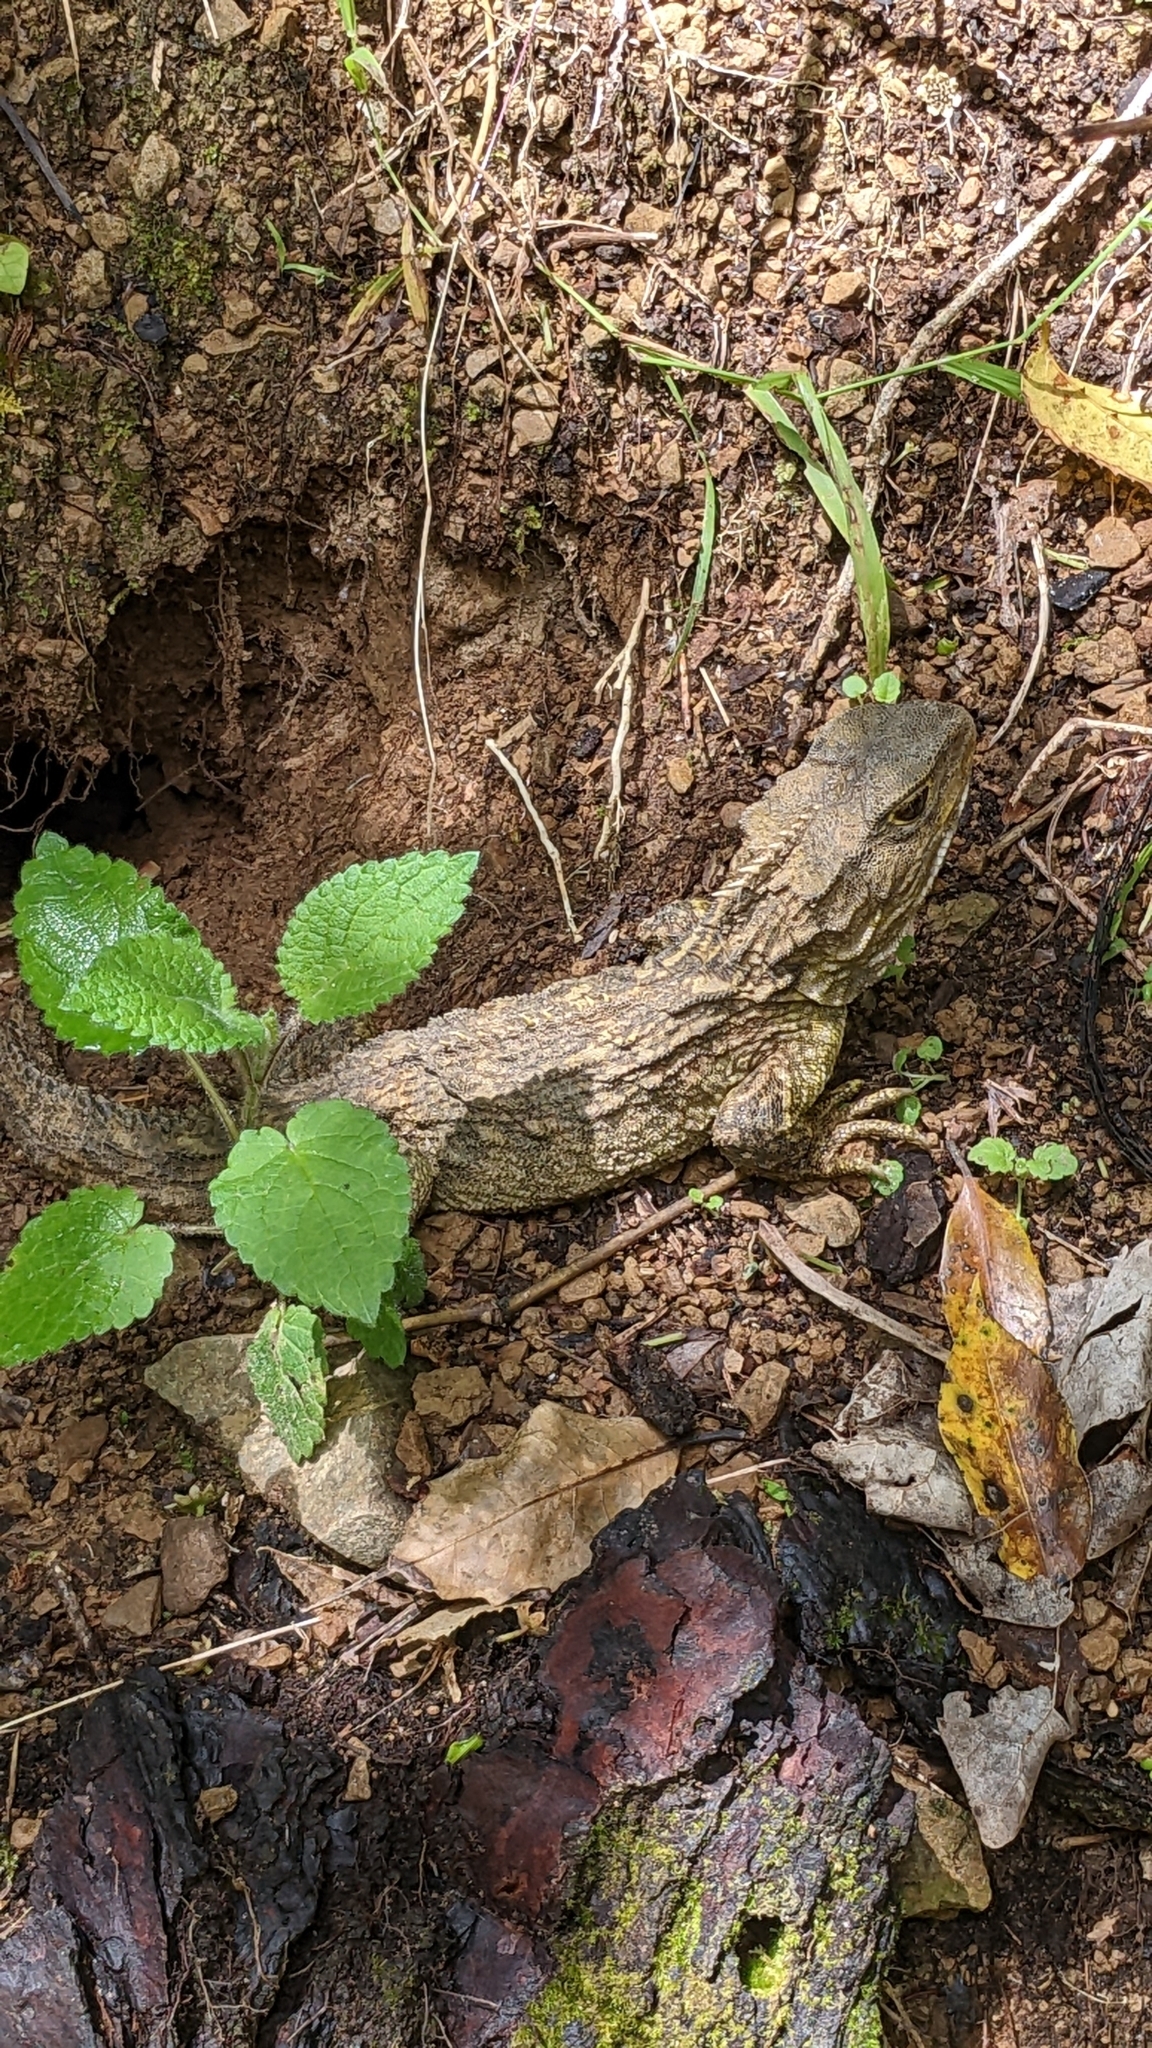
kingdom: Animalia
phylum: Chordata
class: Sphenodontia
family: Sphenodontidae
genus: Sphenodon
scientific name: Sphenodon punctatus
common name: Tuatara
